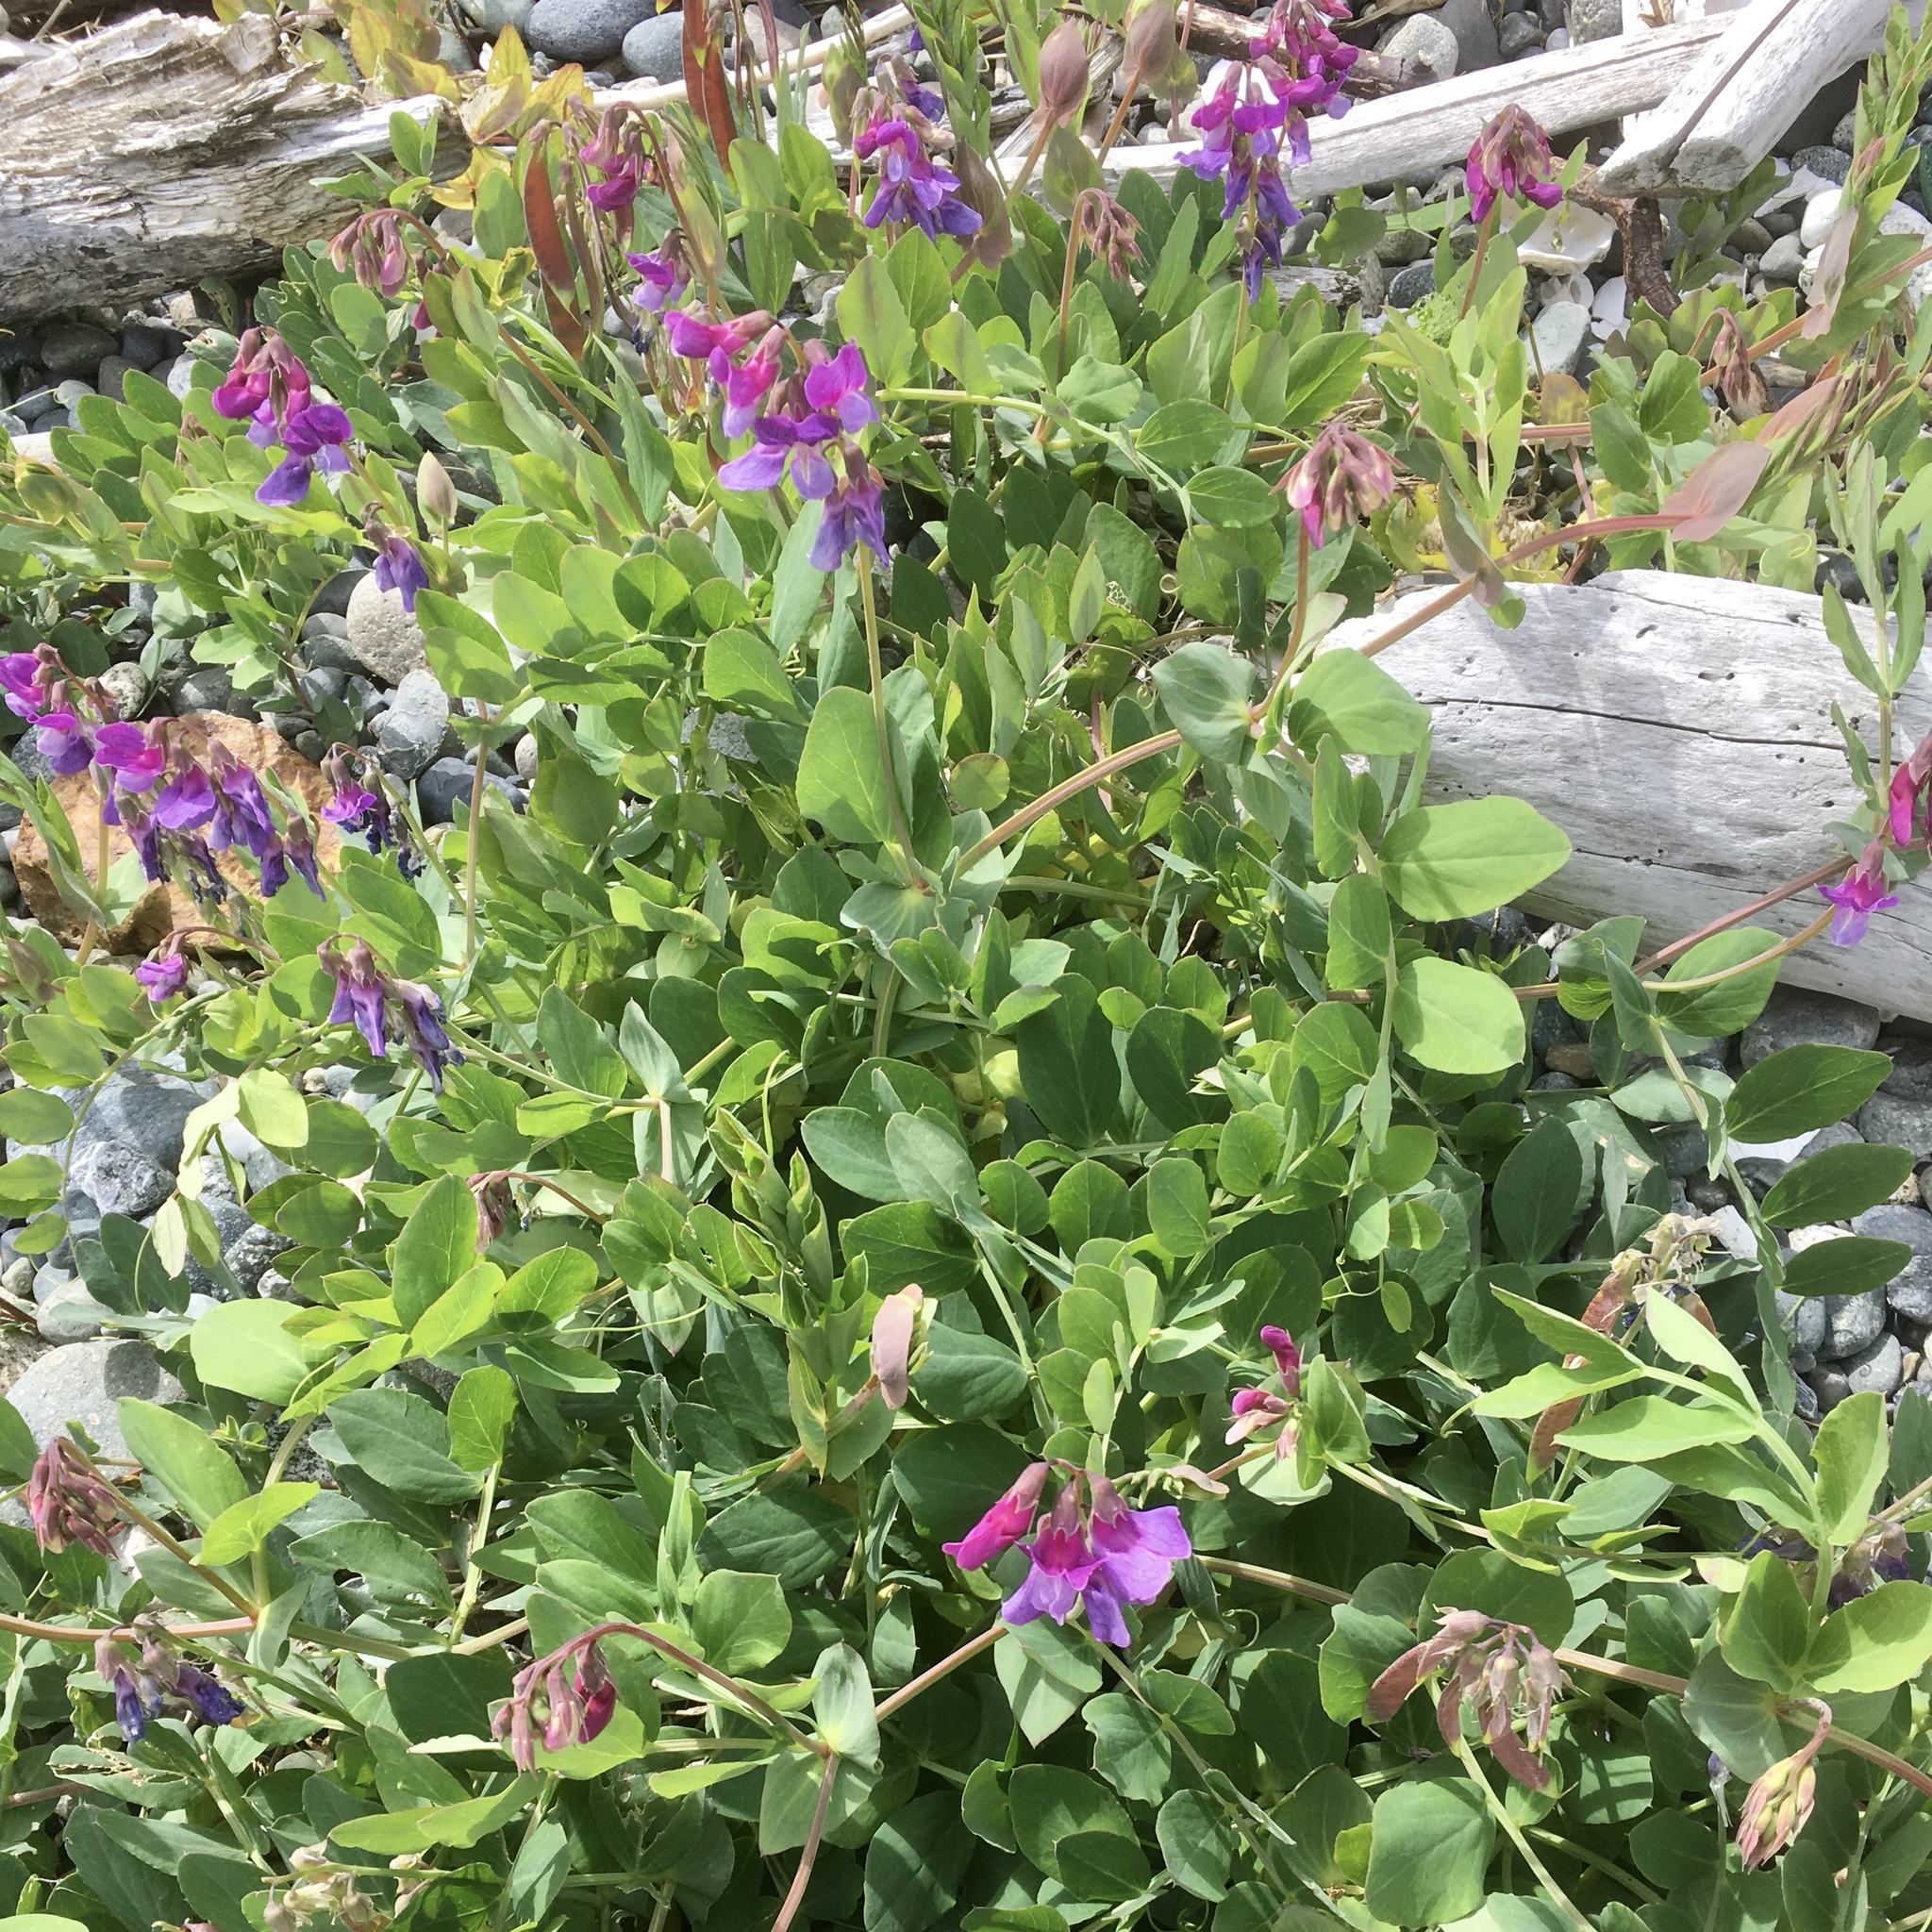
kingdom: Plantae
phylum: Tracheophyta
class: Magnoliopsida
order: Fabales
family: Fabaceae
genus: Lathyrus
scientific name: Lathyrus japonicus
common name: Sea pea
